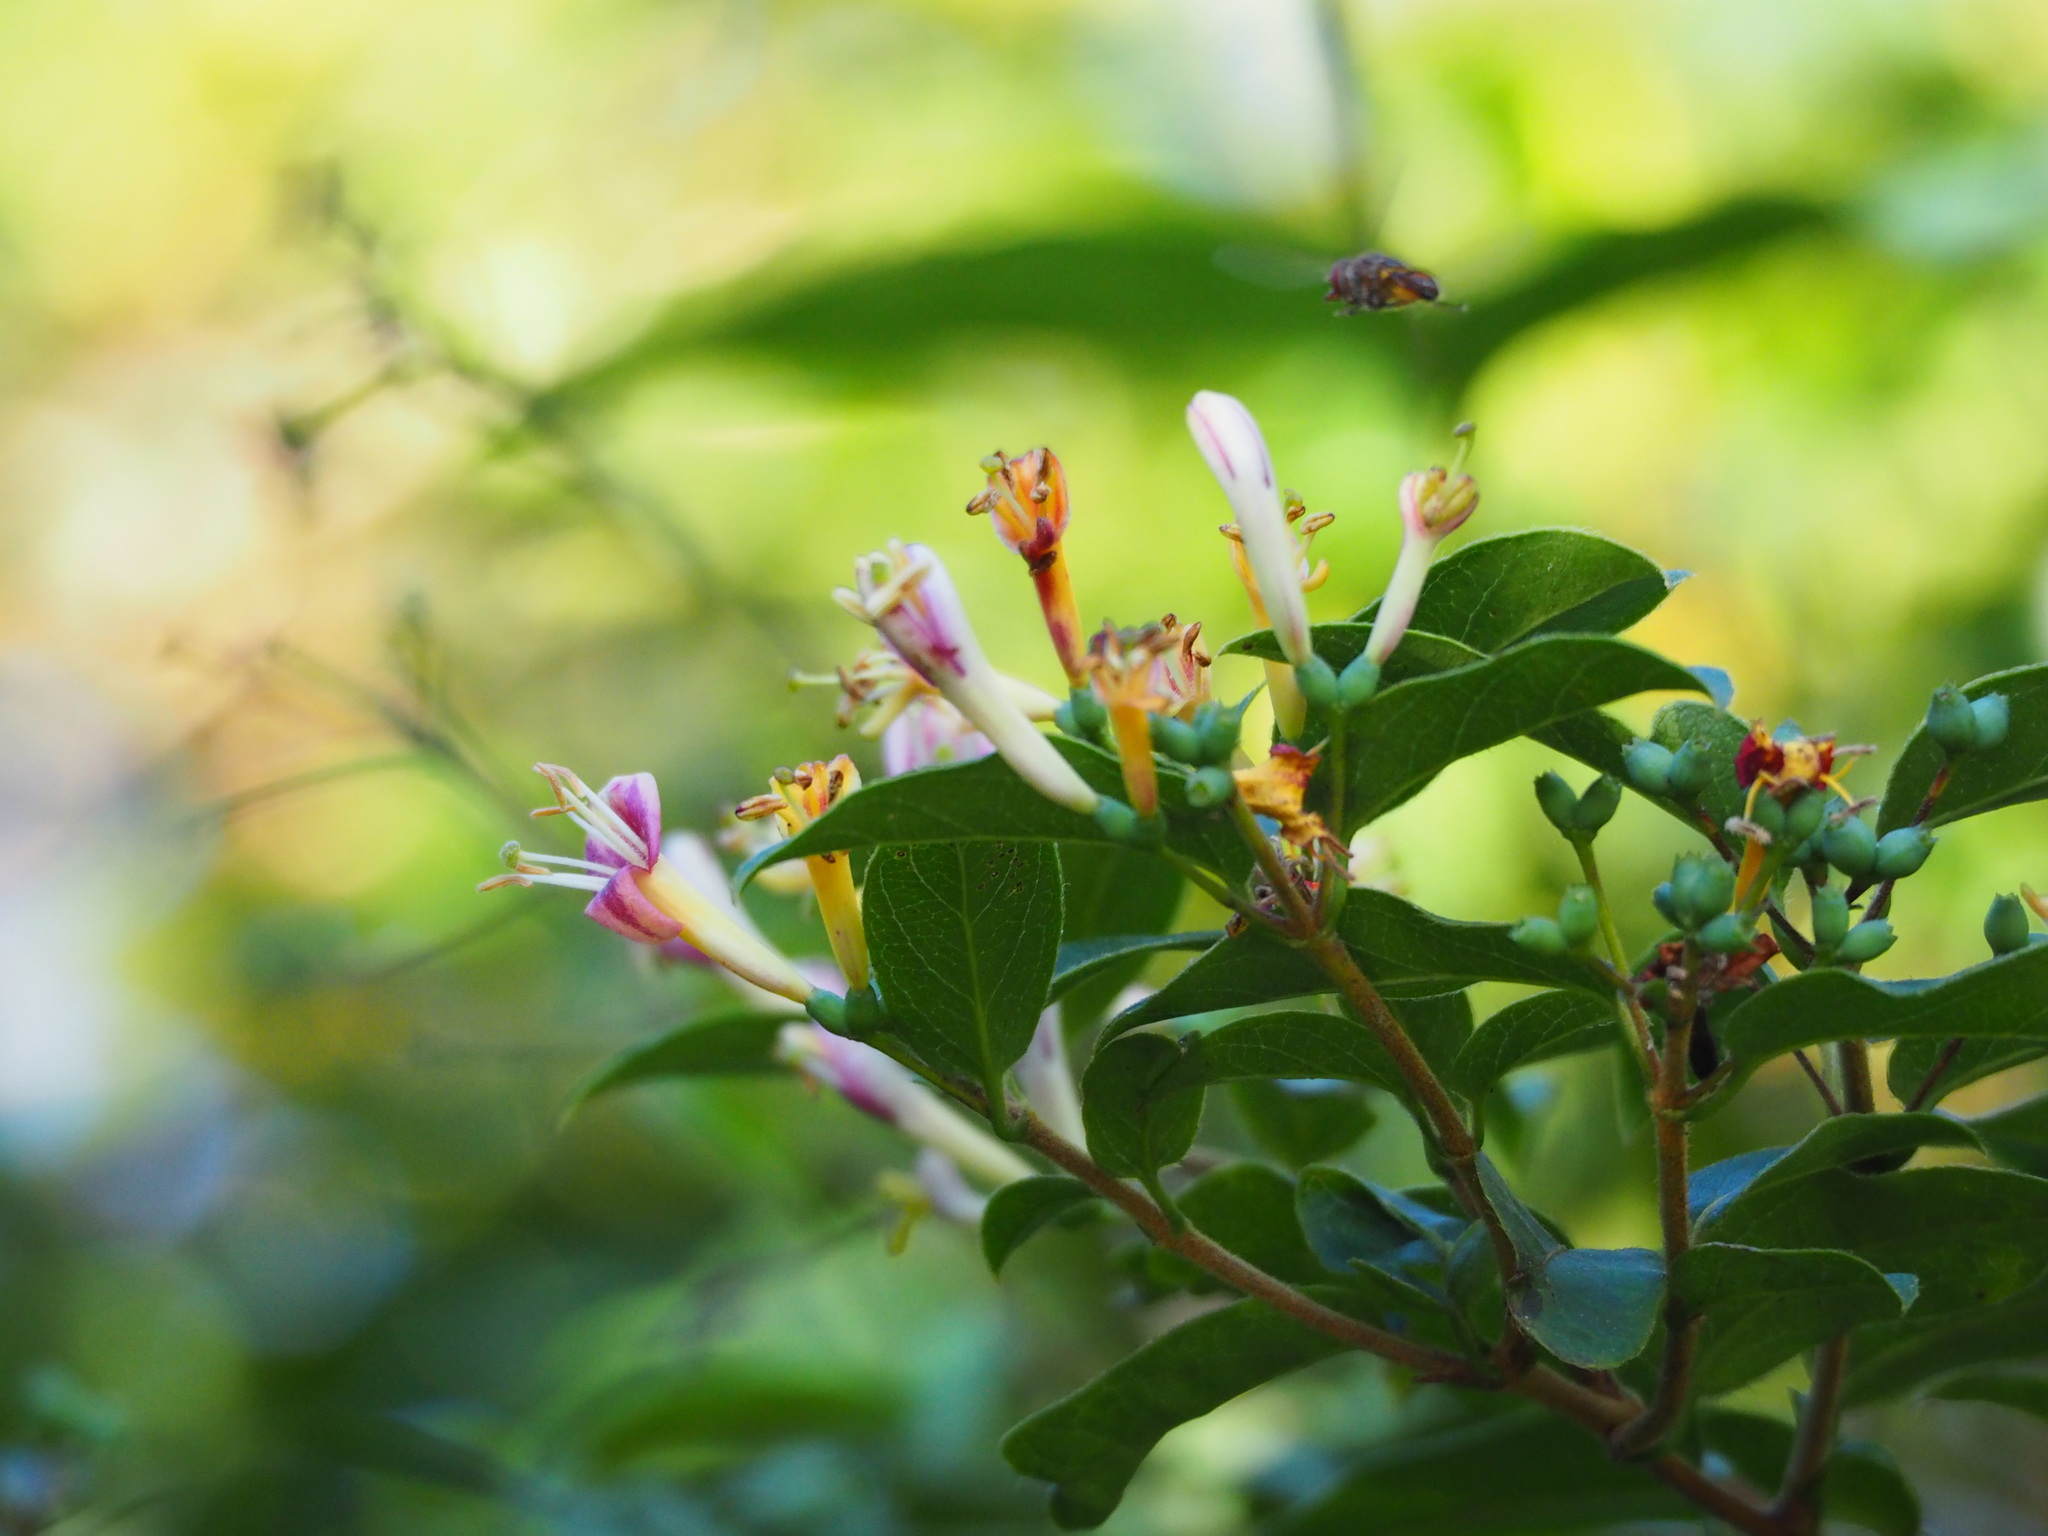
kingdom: Plantae
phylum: Tracheophyta
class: Magnoliopsida
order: Dipsacales
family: Caprifoliaceae
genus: Lonicera
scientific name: Lonicera acuminata
